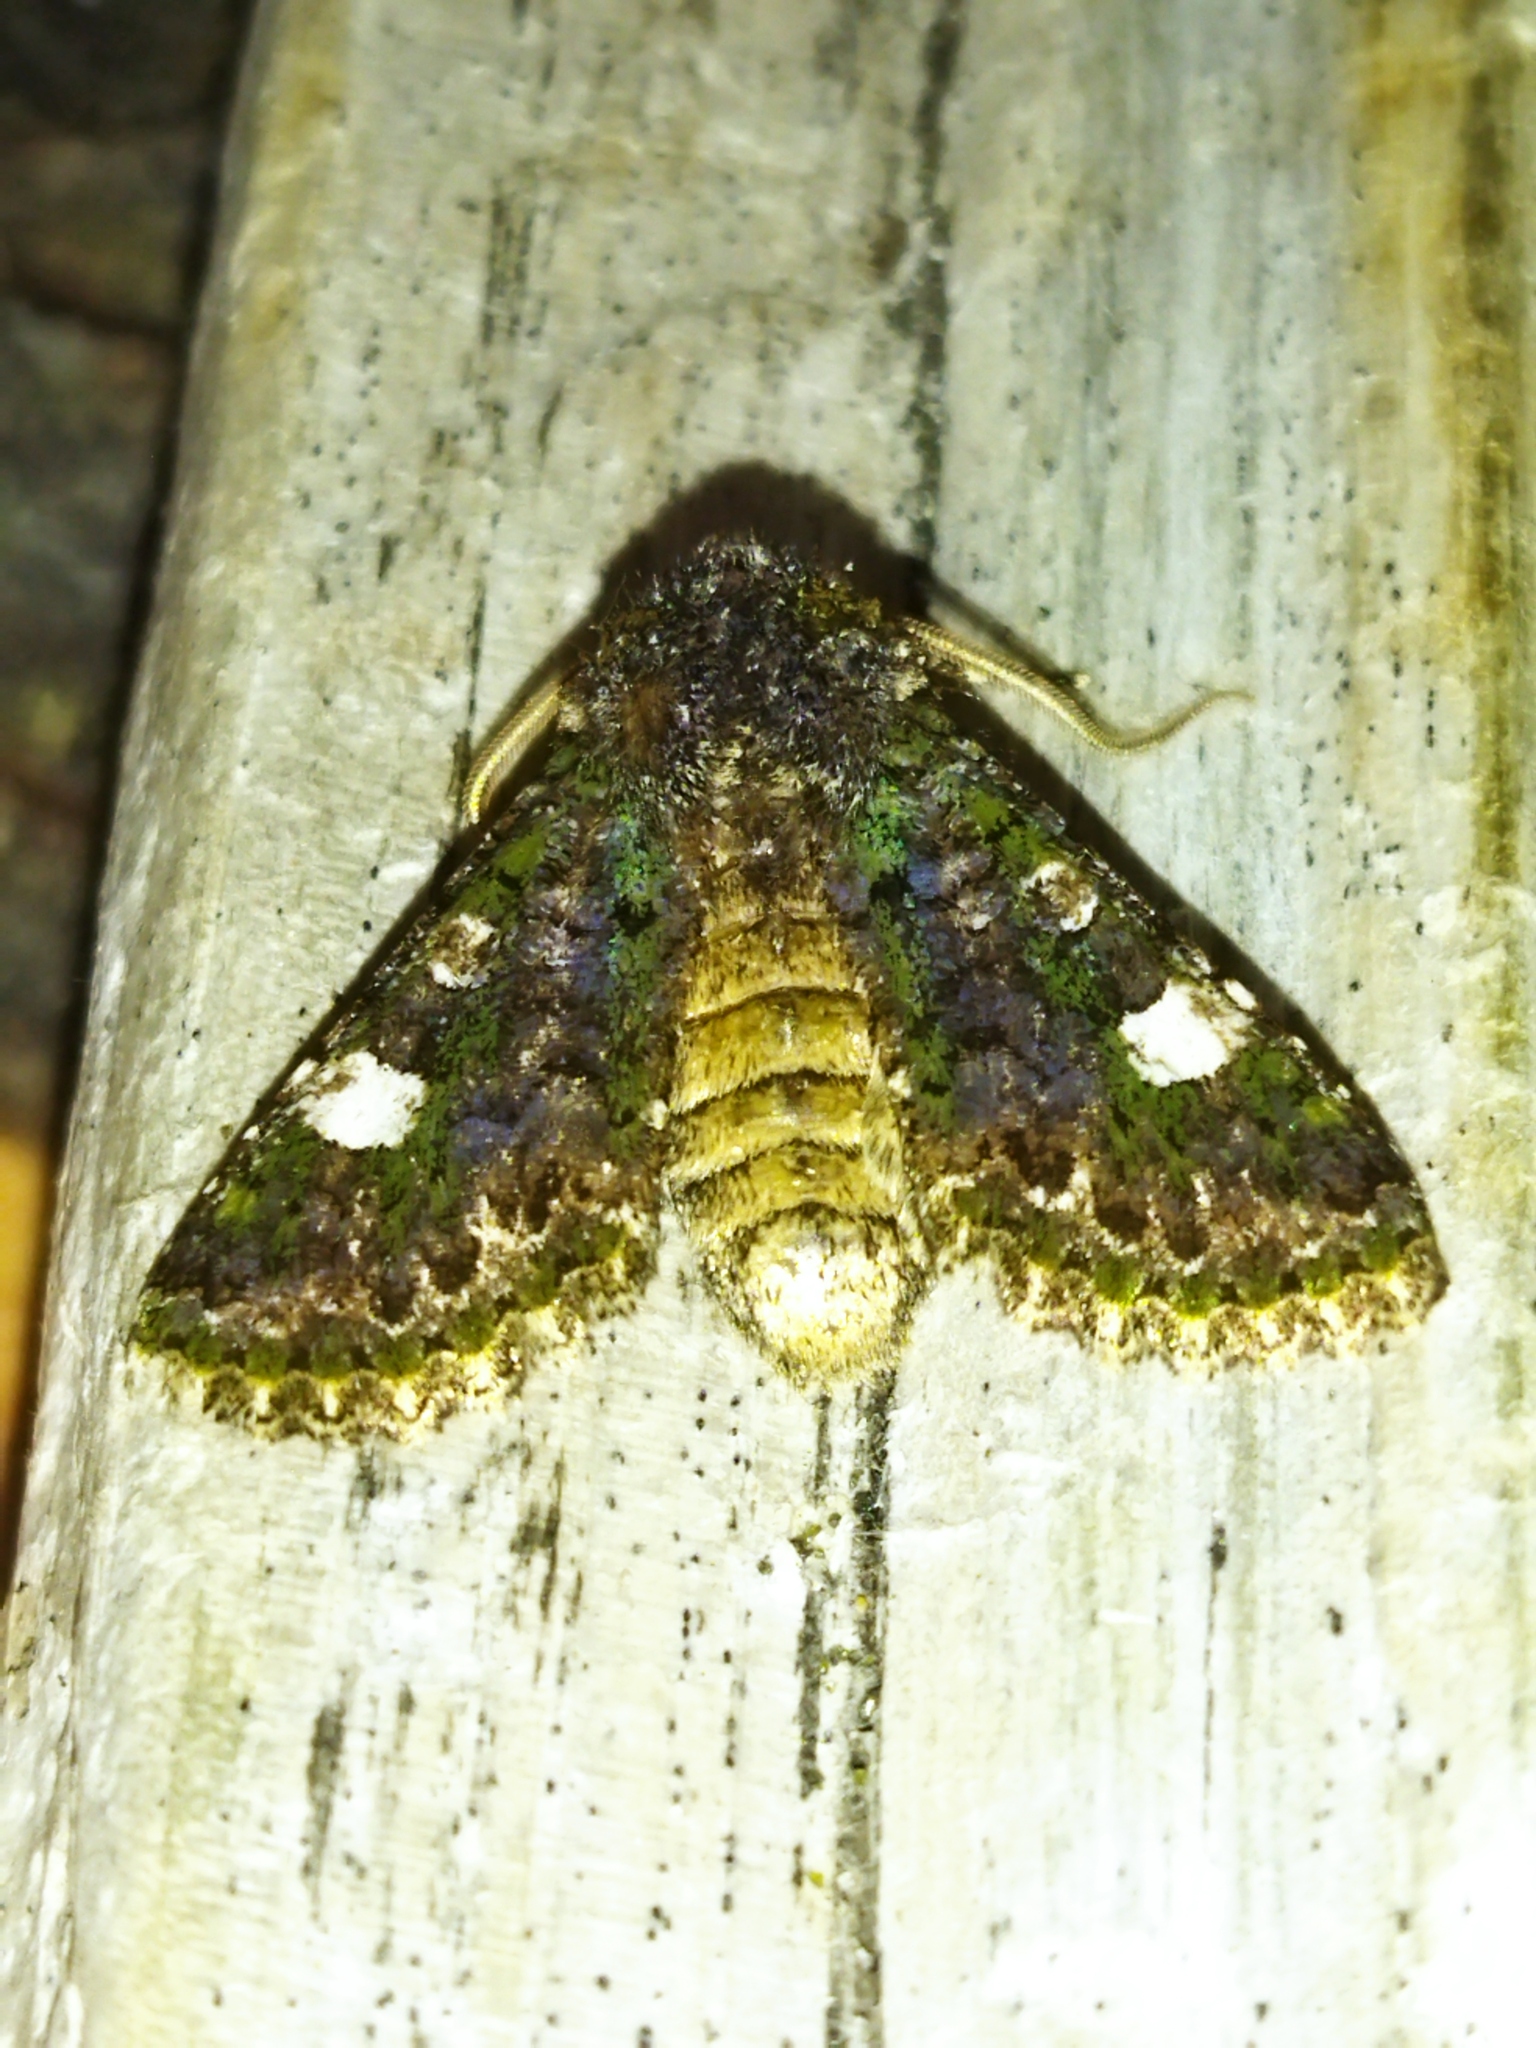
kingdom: Animalia
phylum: Arthropoda
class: Insecta
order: Lepidoptera
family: Noctuidae
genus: Valeria
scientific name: Valeria oleagina
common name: Green-brindled dot
